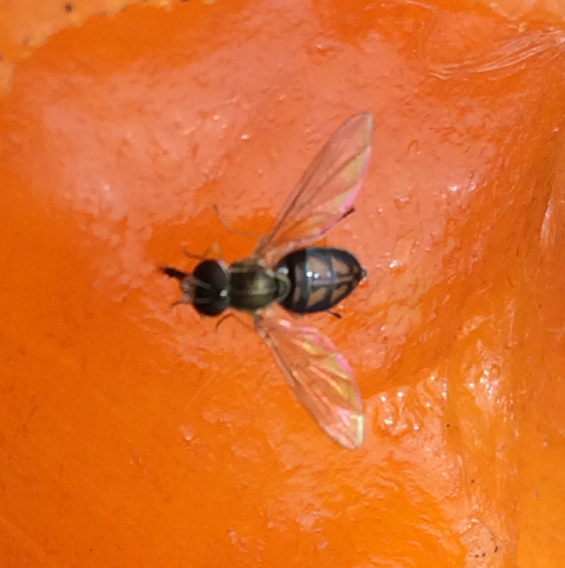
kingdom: Animalia
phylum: Arthropoda
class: Insecta
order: Diptera
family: Syrphidae
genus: Toxomerus
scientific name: Toxomerus marginatus
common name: Syrphid fly
